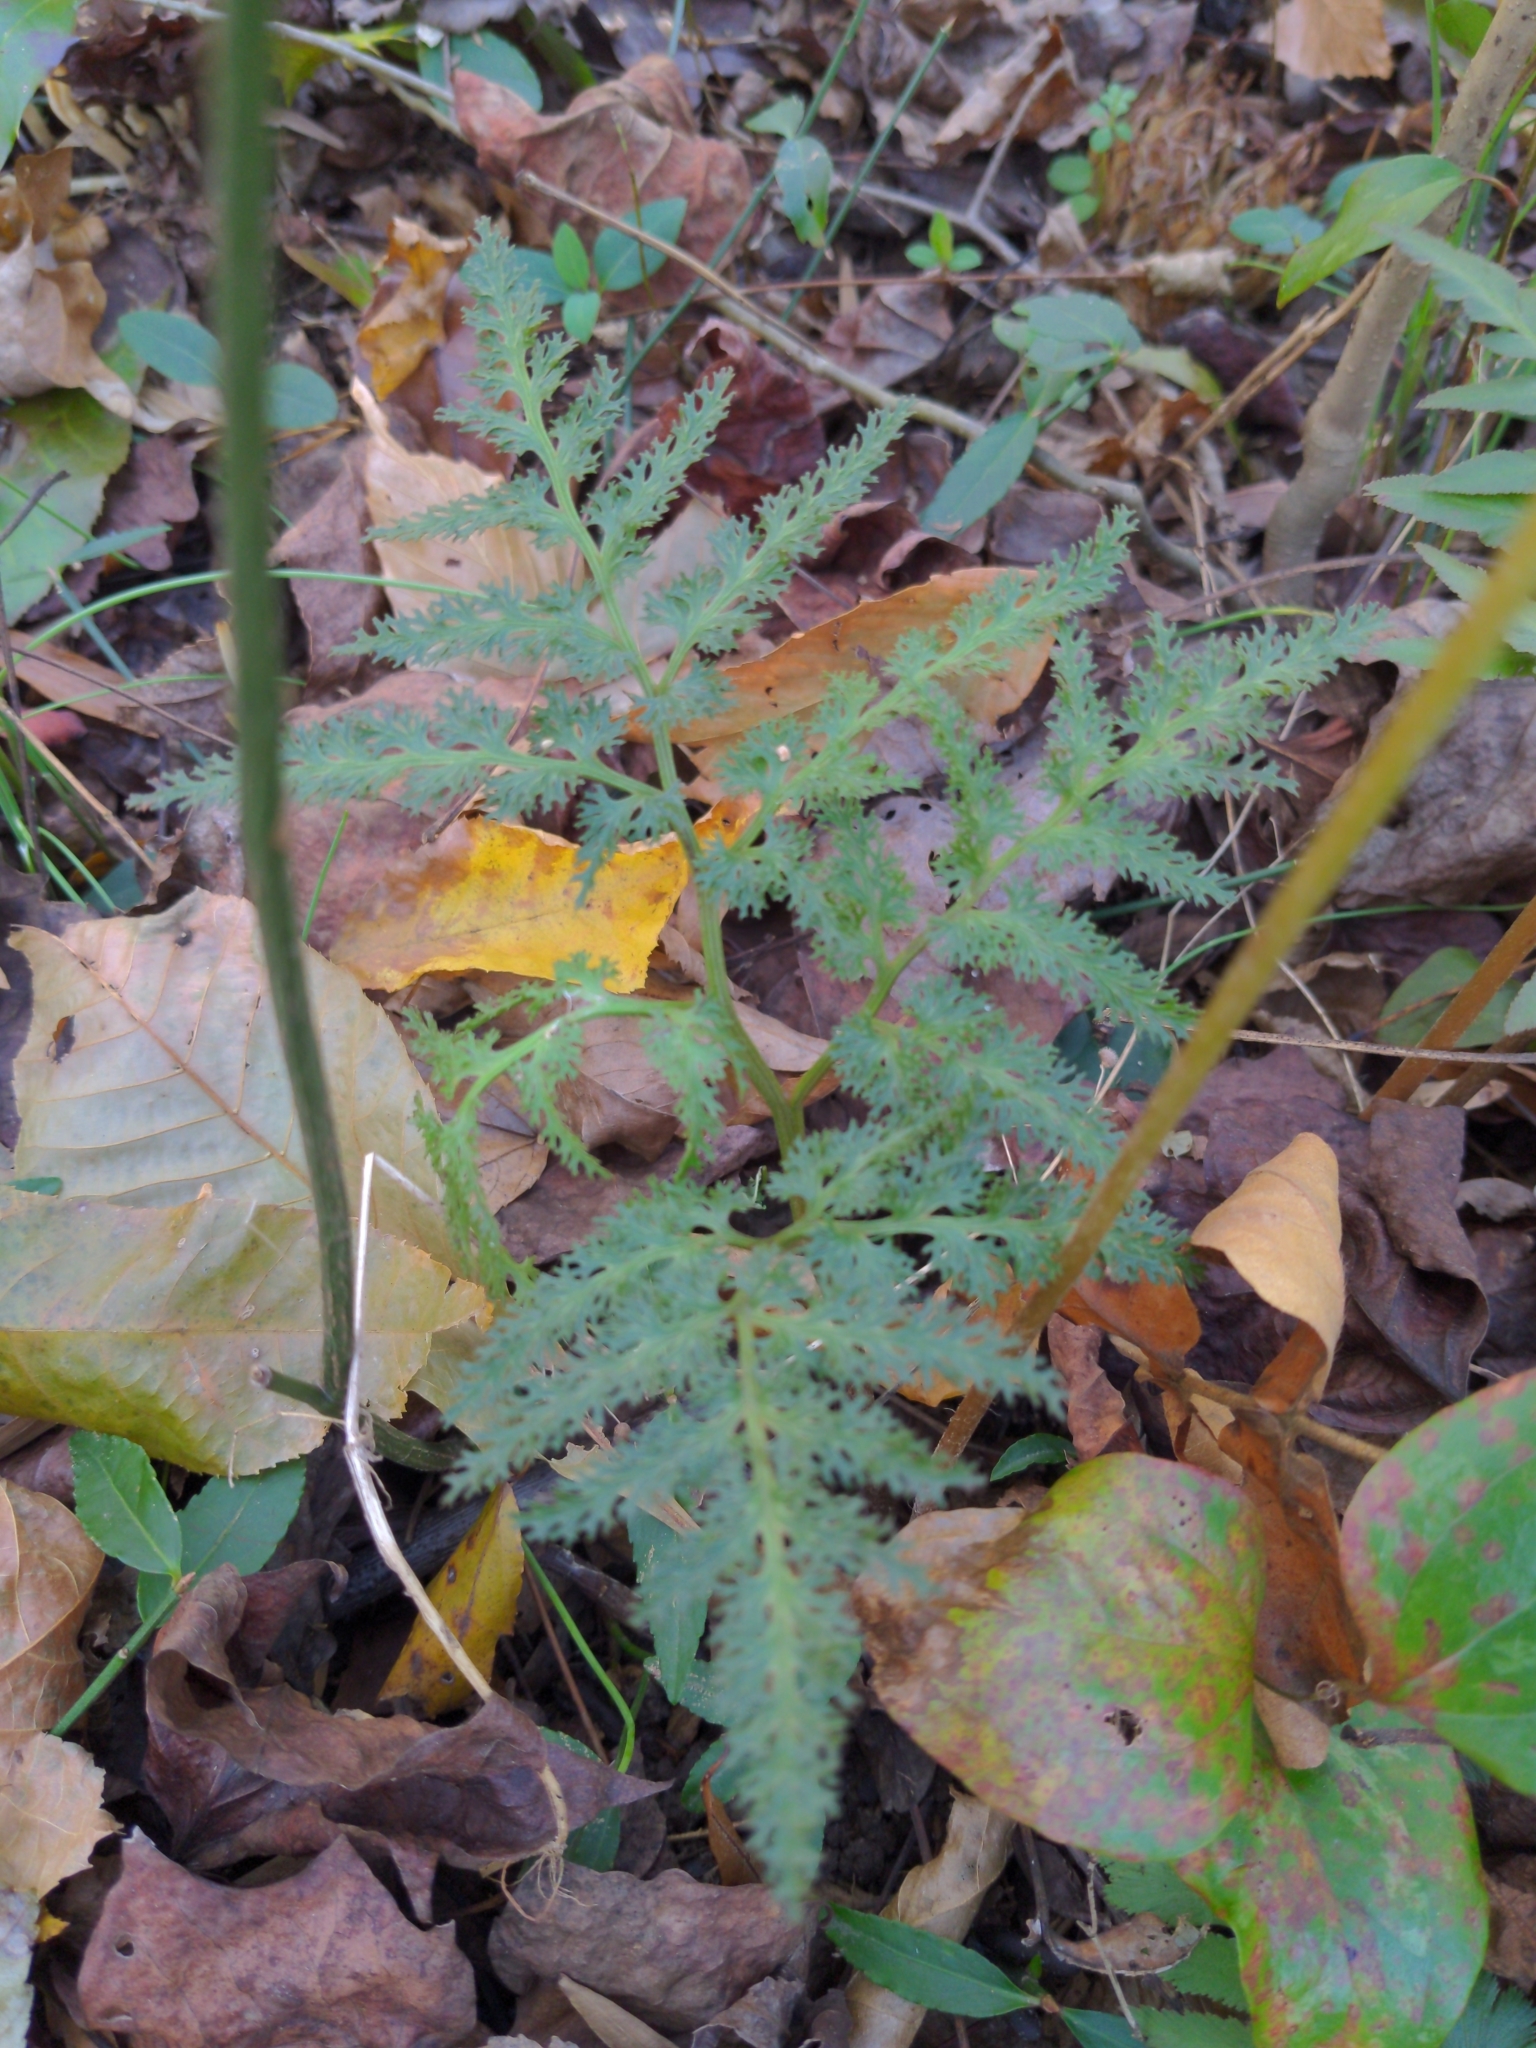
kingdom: Plantae
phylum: Tracheophyta
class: Polypodiopsida
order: Ophioglossales
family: Ophioglossaceae
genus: Sceptridium
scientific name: Sceptridium dissectum
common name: Cut-leaved grapefern
